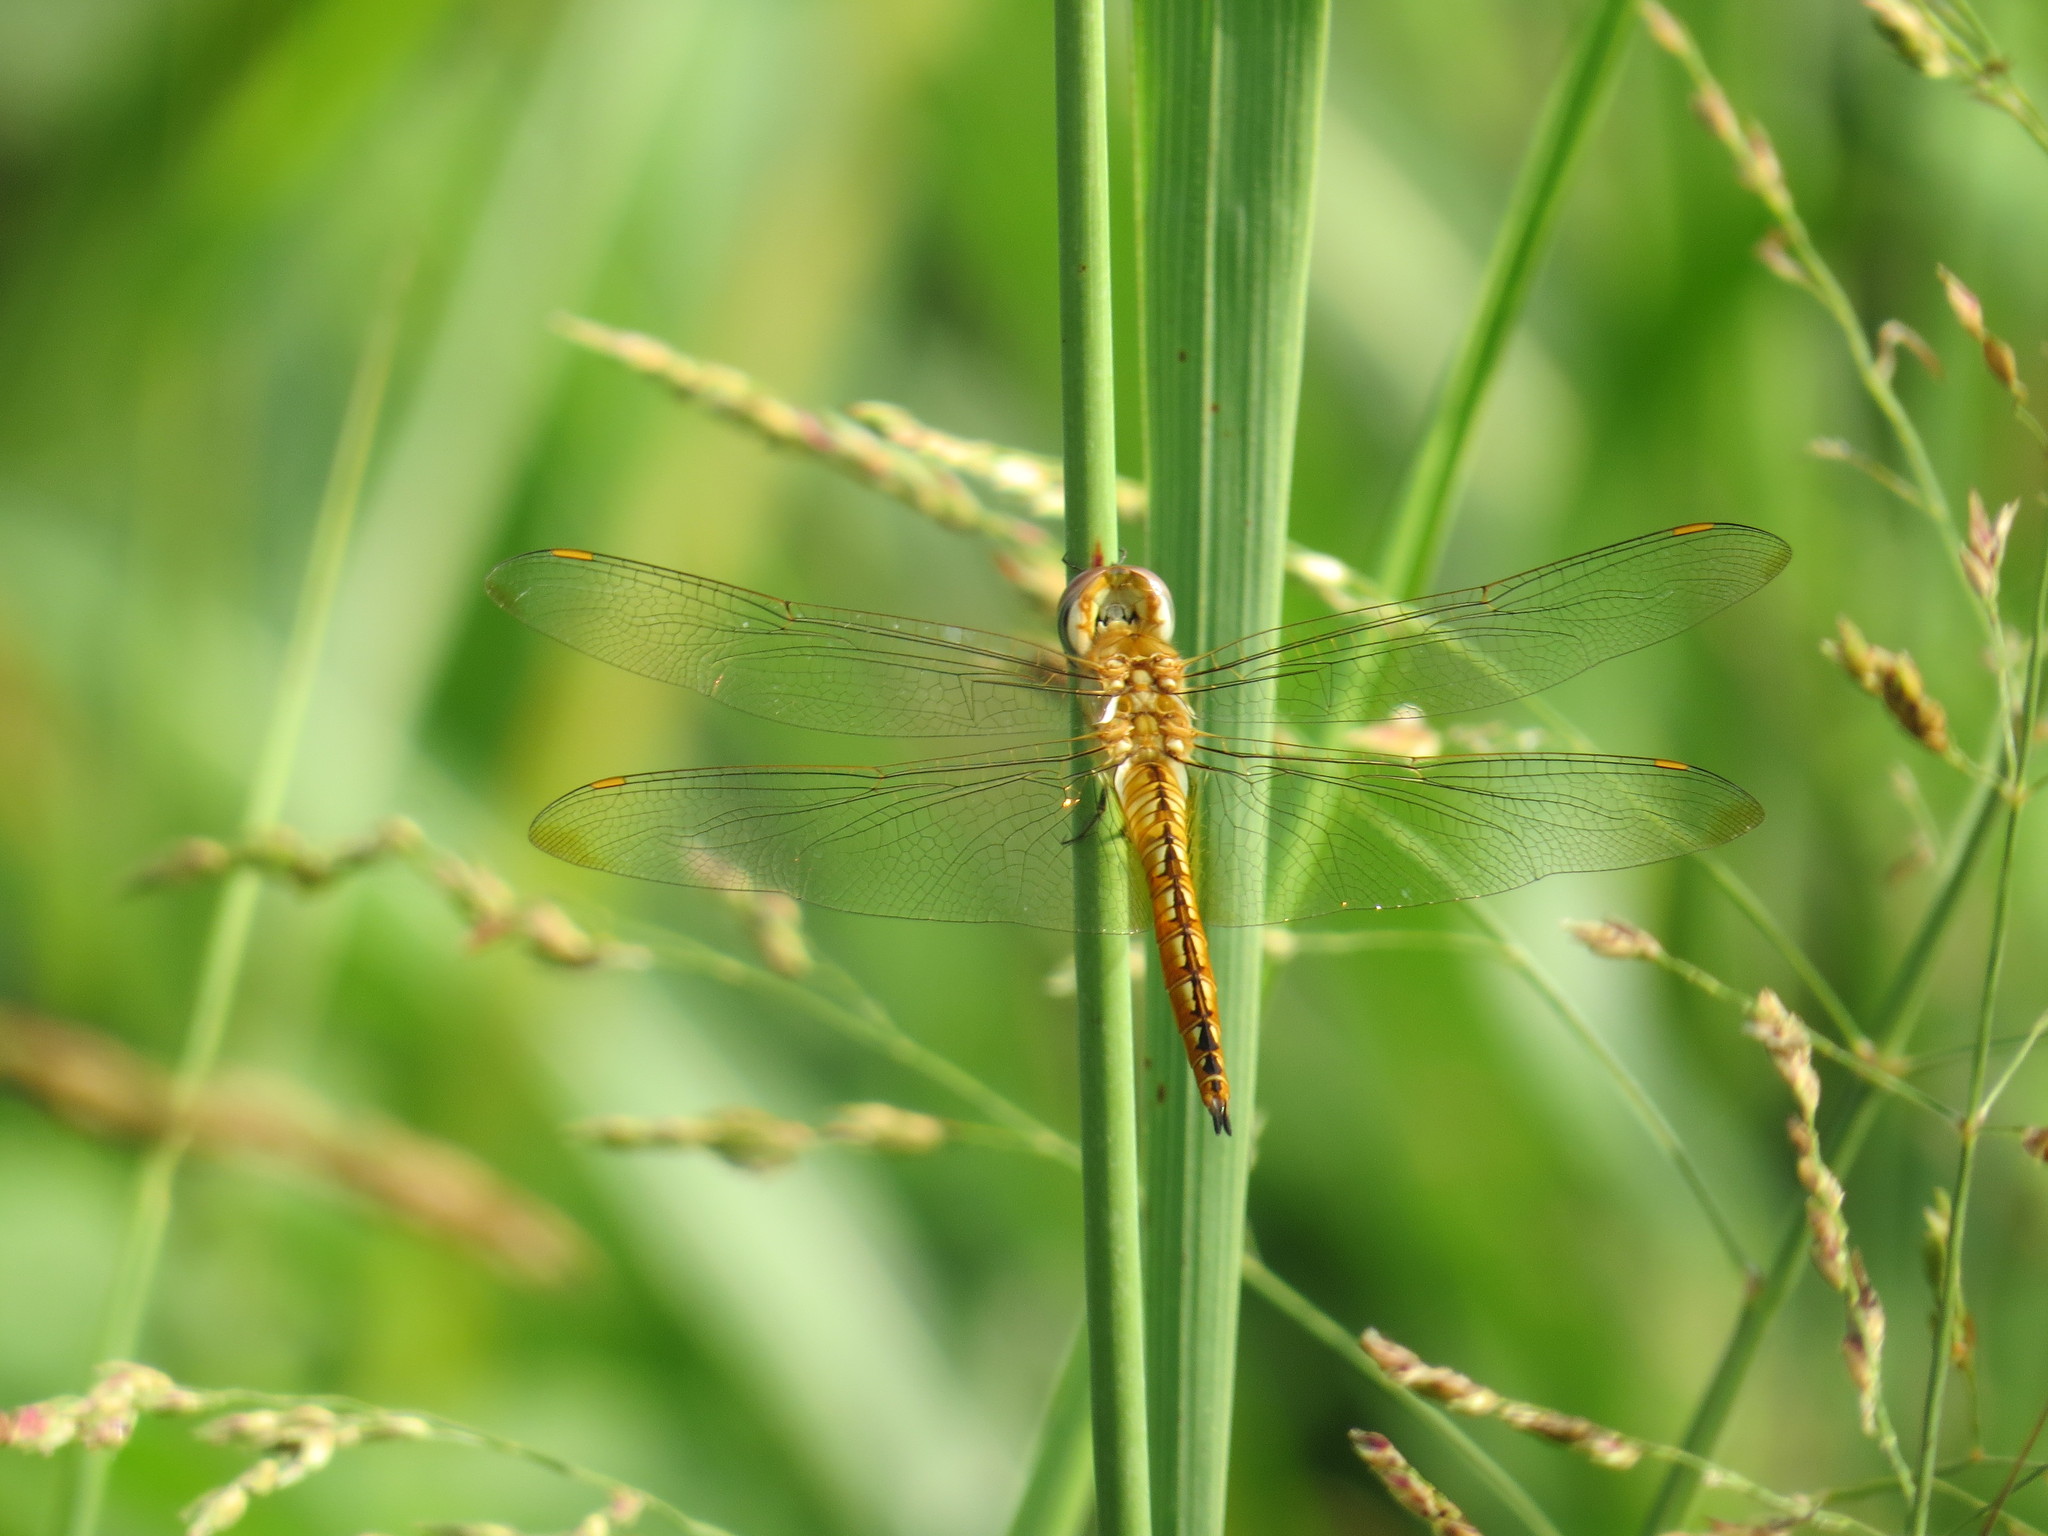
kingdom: Animalia
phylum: Arthropoda
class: Insecta
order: Odonata
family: Libellulidae
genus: Pantala
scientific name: Pantala flavescens
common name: Wandering glider
